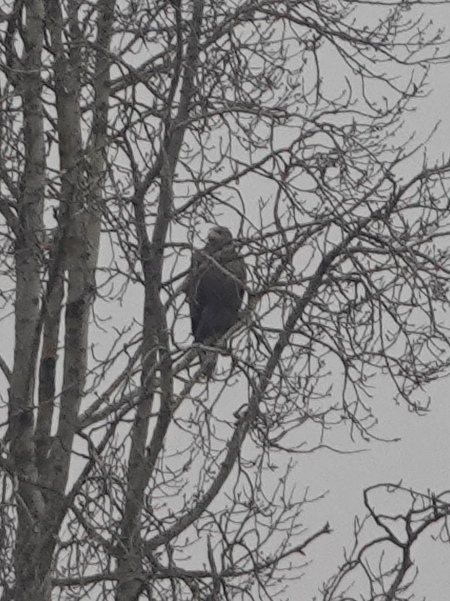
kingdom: Animalia
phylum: Chordata
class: Aves
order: Accipitriformes
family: Accipitridae
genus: Haliaeetus
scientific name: Haliaeetus albicilla
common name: White-tailed eagle
